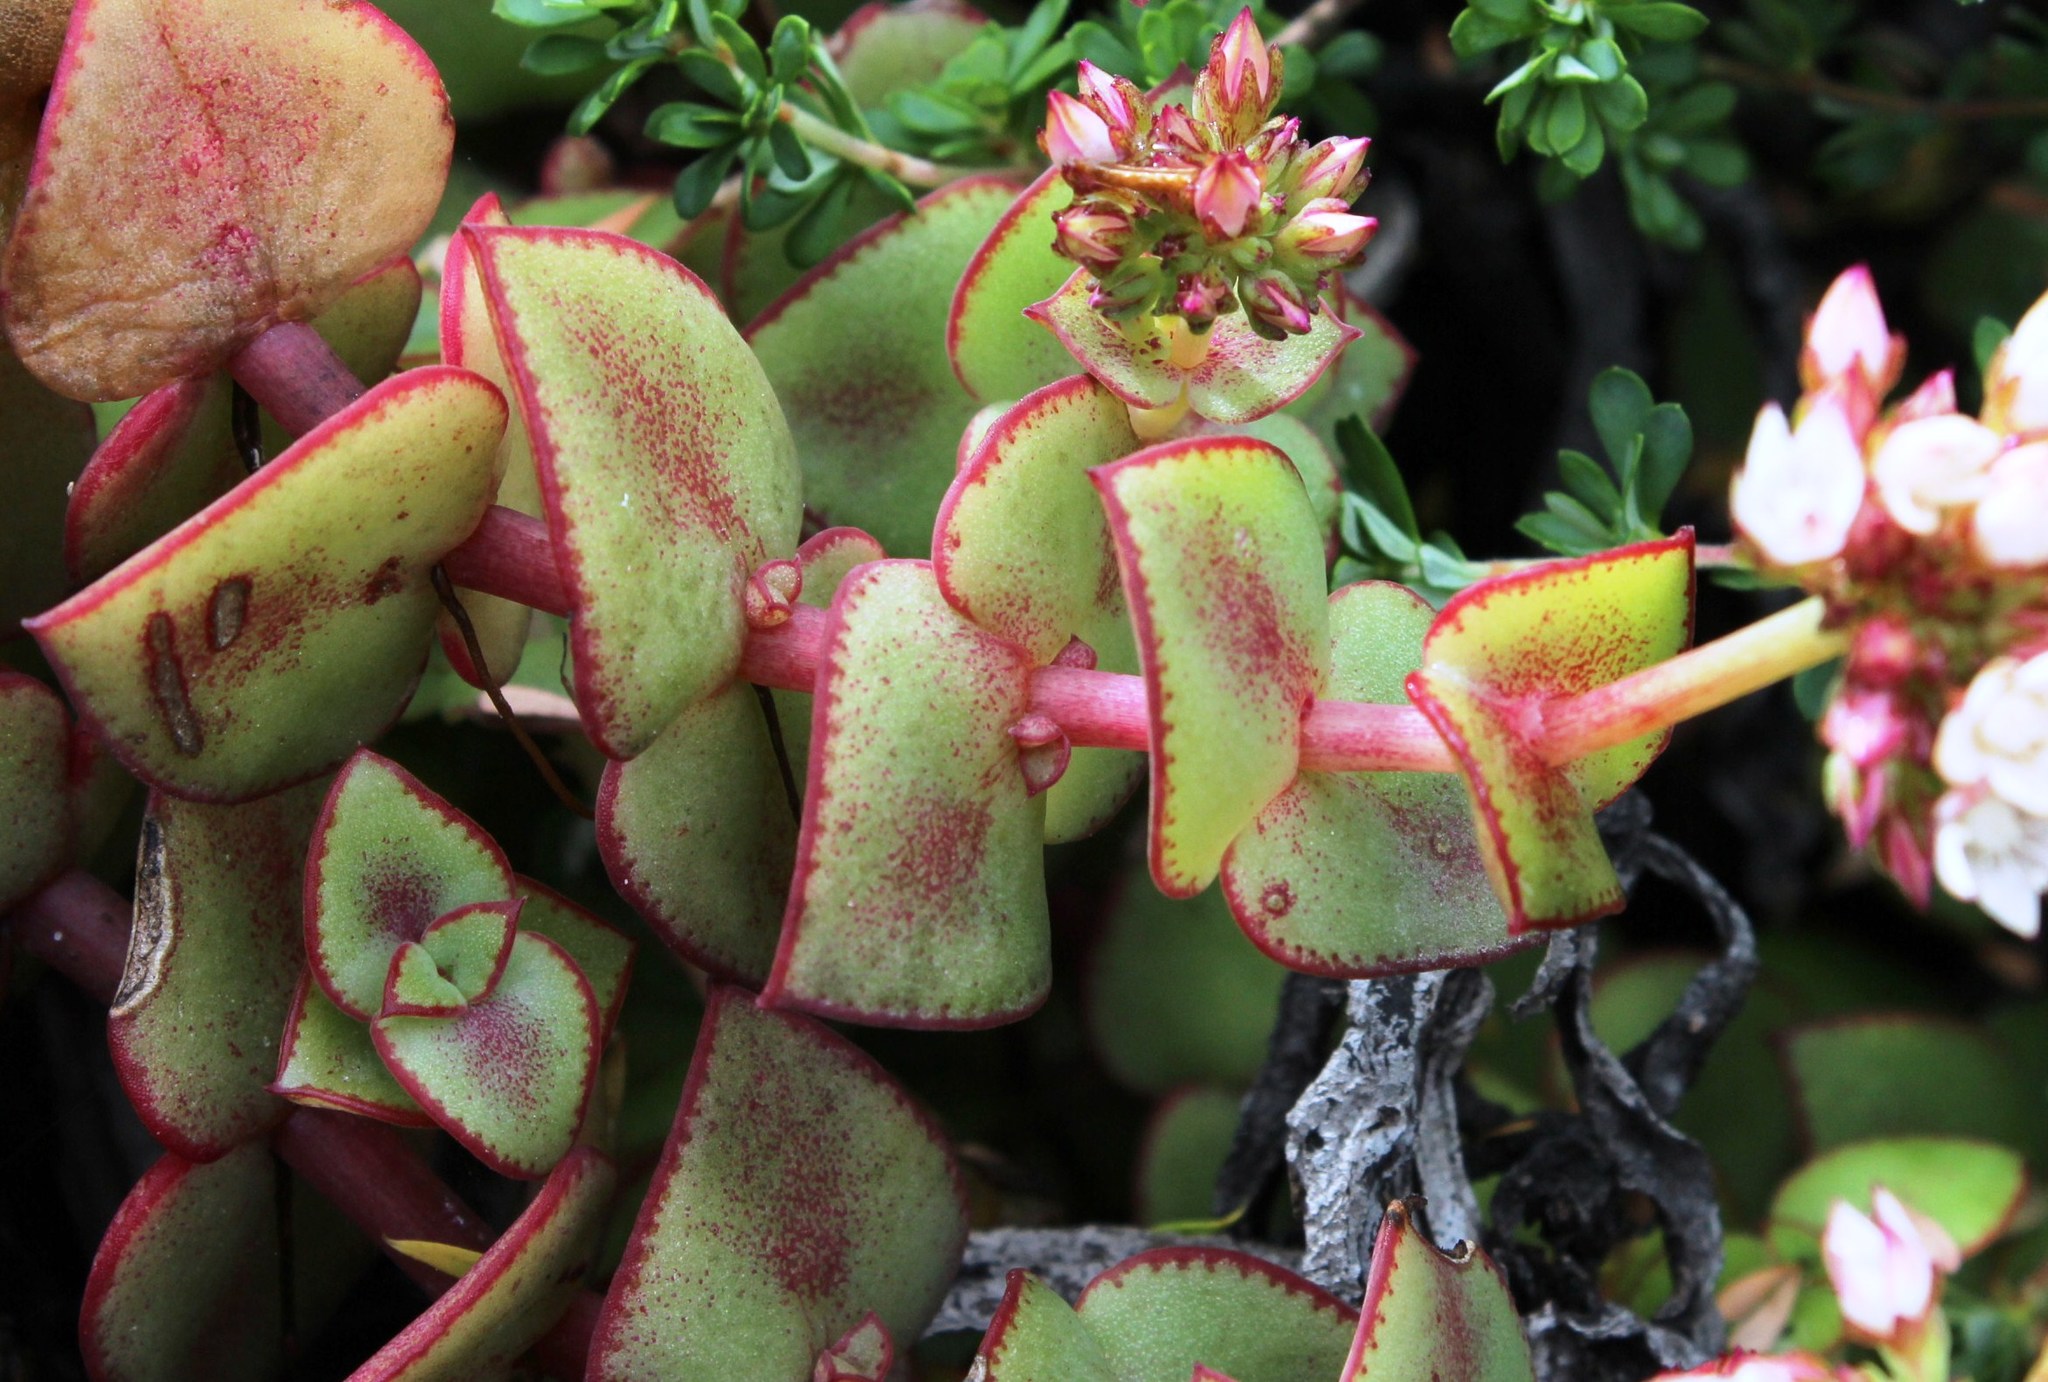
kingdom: Plantae
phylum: Tracheophyta
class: Magnoliopsida
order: Saxifragales
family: Crassulaceae
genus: Crassula
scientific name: Crassula pellucida
